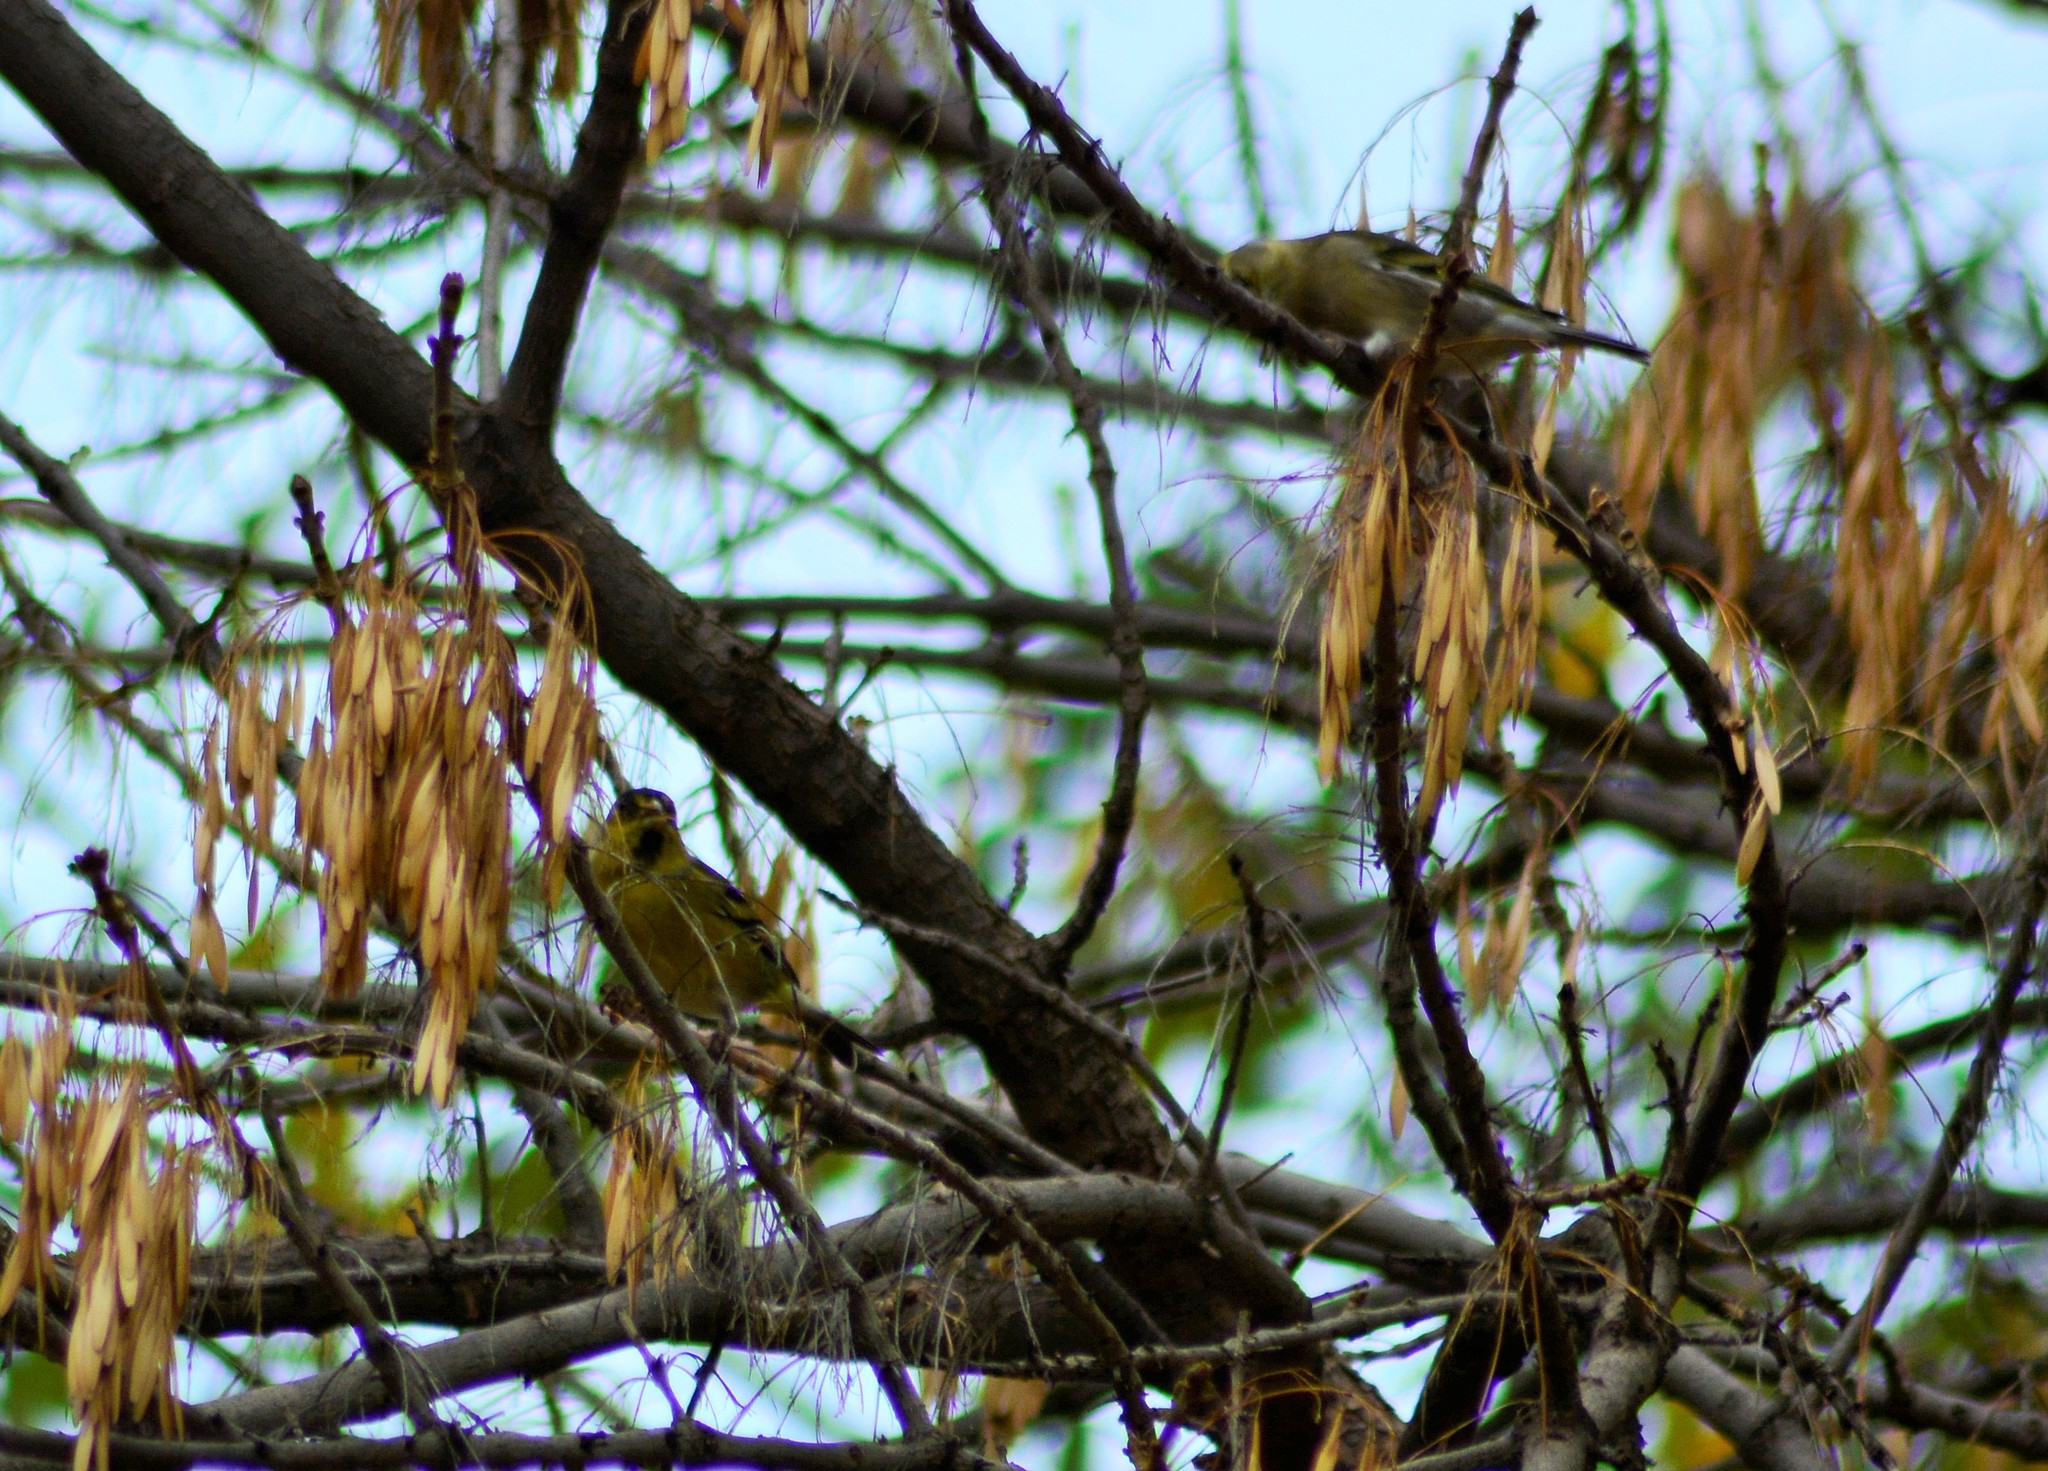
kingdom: Animalia
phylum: Chordata
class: Aves
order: Passeriformes
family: Fringillidae
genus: Spinus
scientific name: Spinus barbatus
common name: Black-chinned siskin
